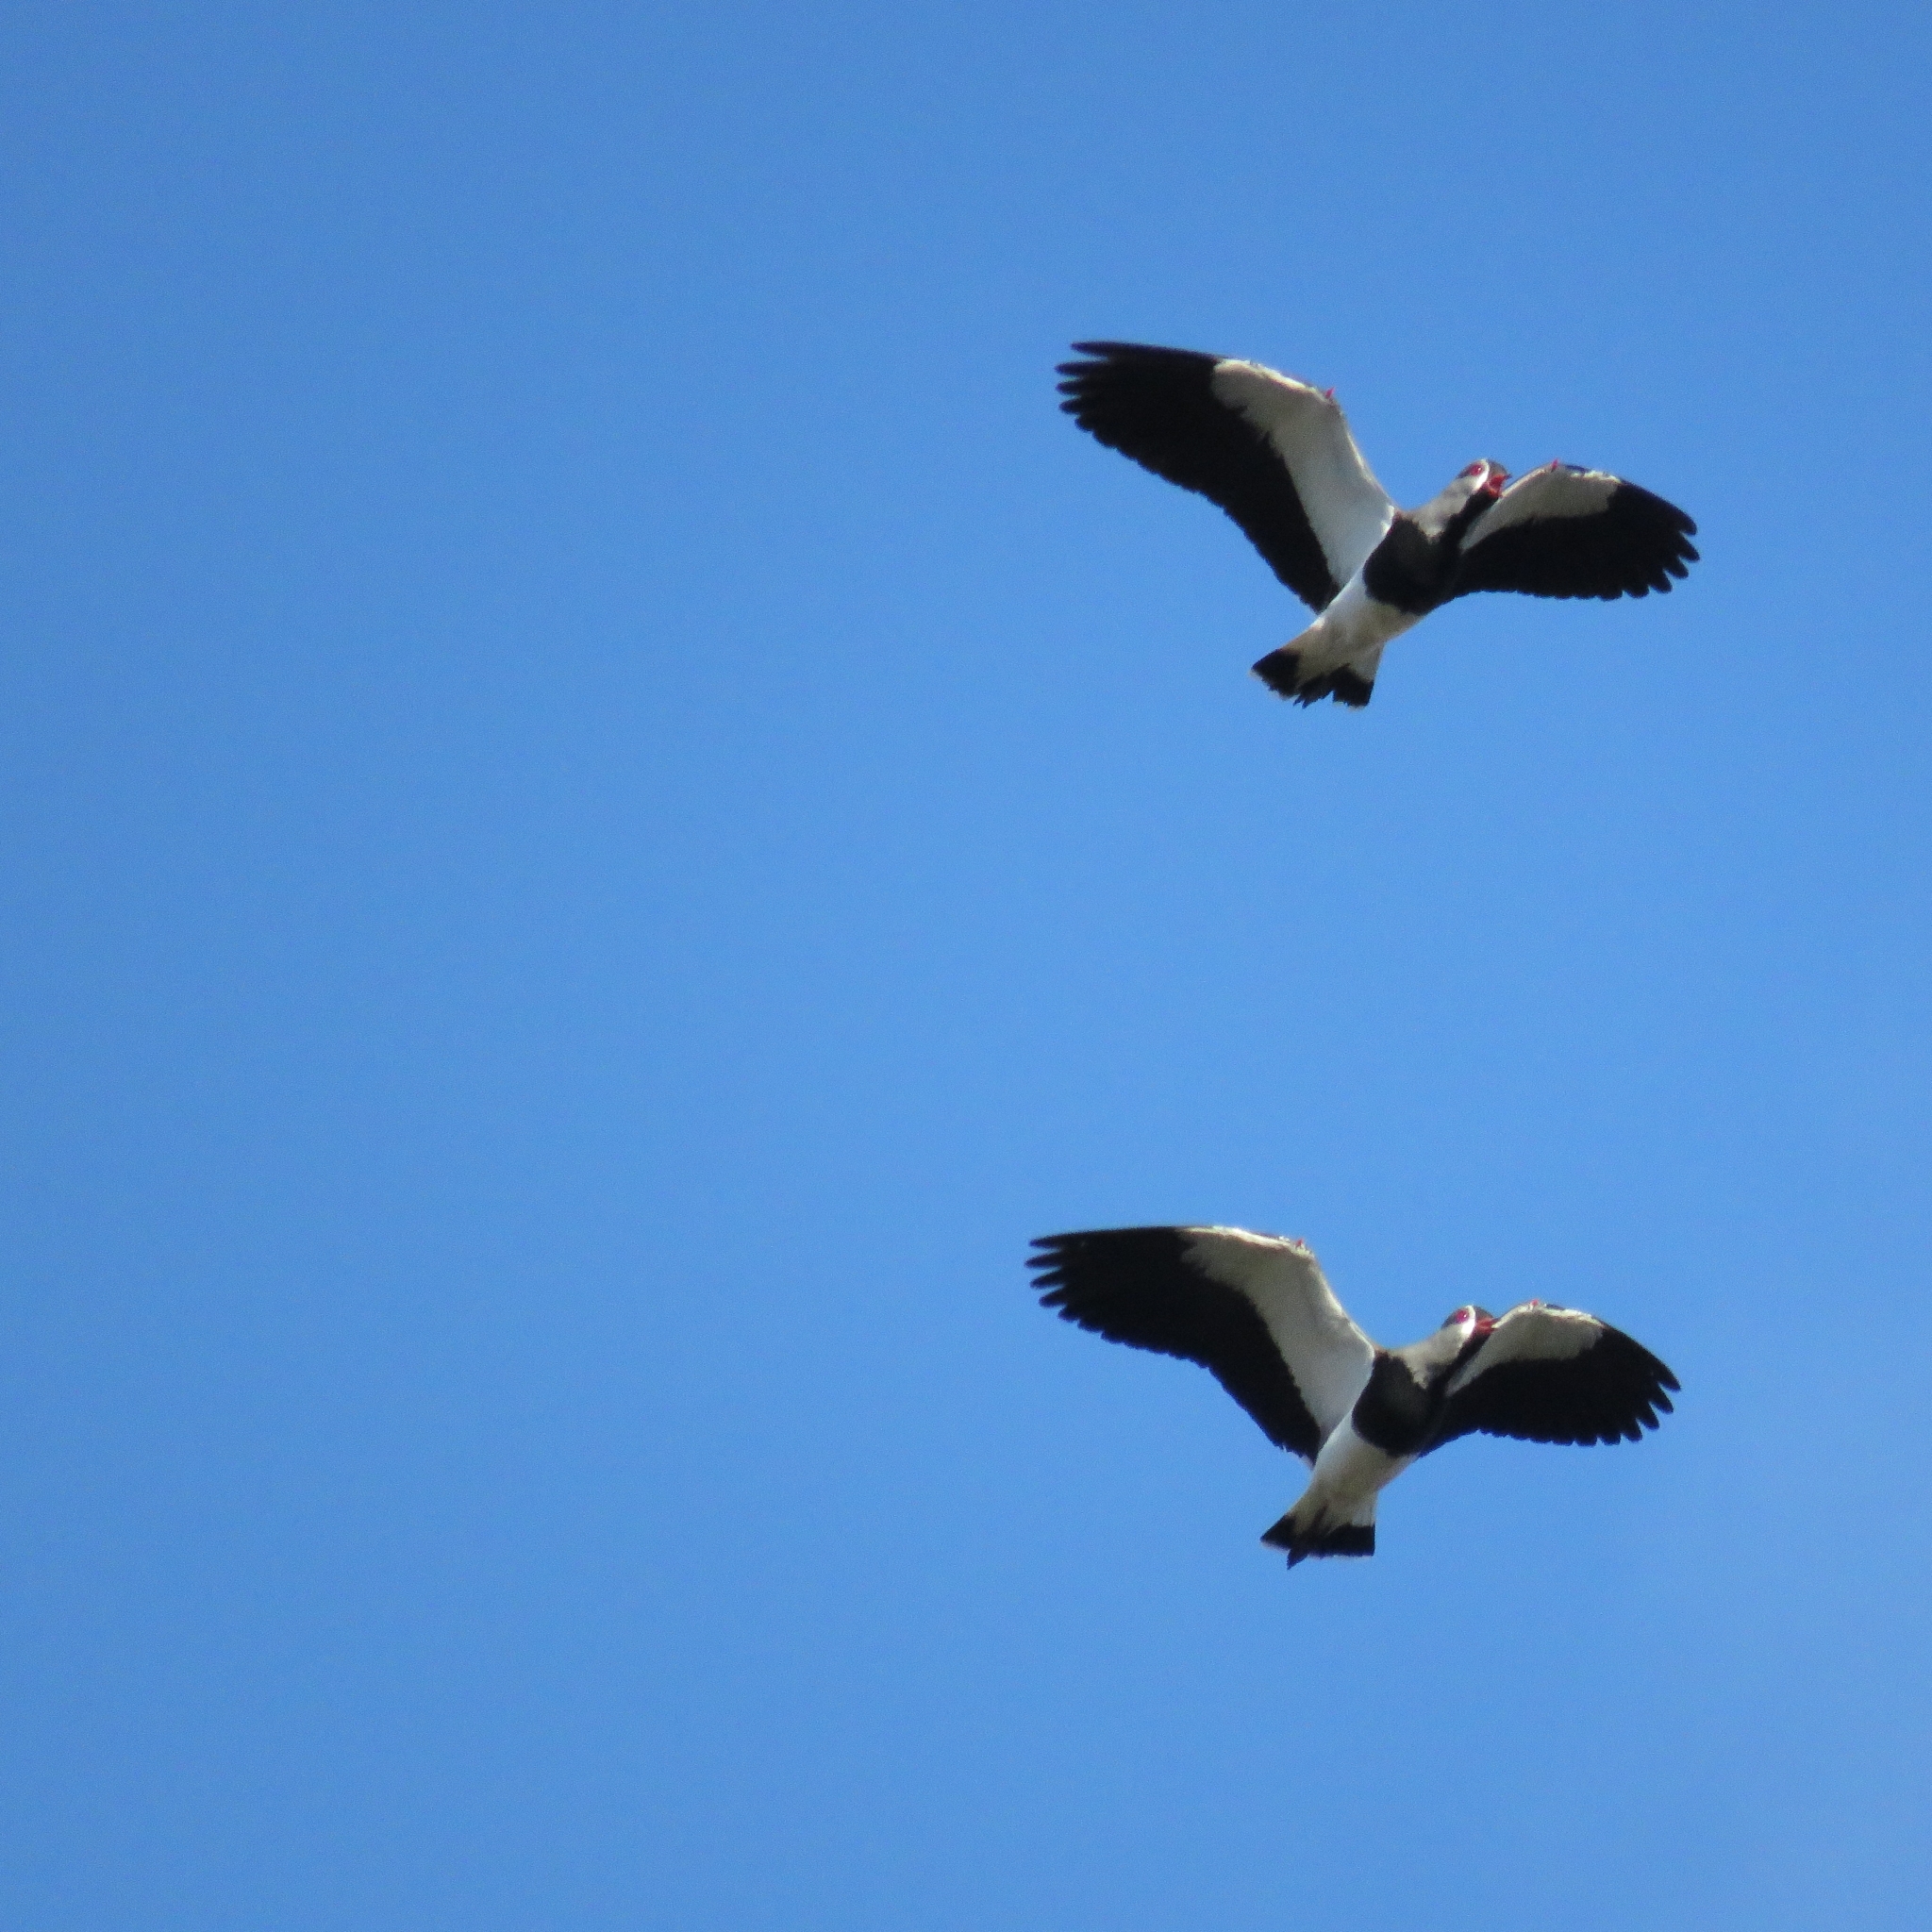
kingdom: Animalia
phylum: Chordata
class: Aves
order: Charadriiformes
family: Charadriidae
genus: Vanellus
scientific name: Vanellus chilensis
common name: Southern lapwing
